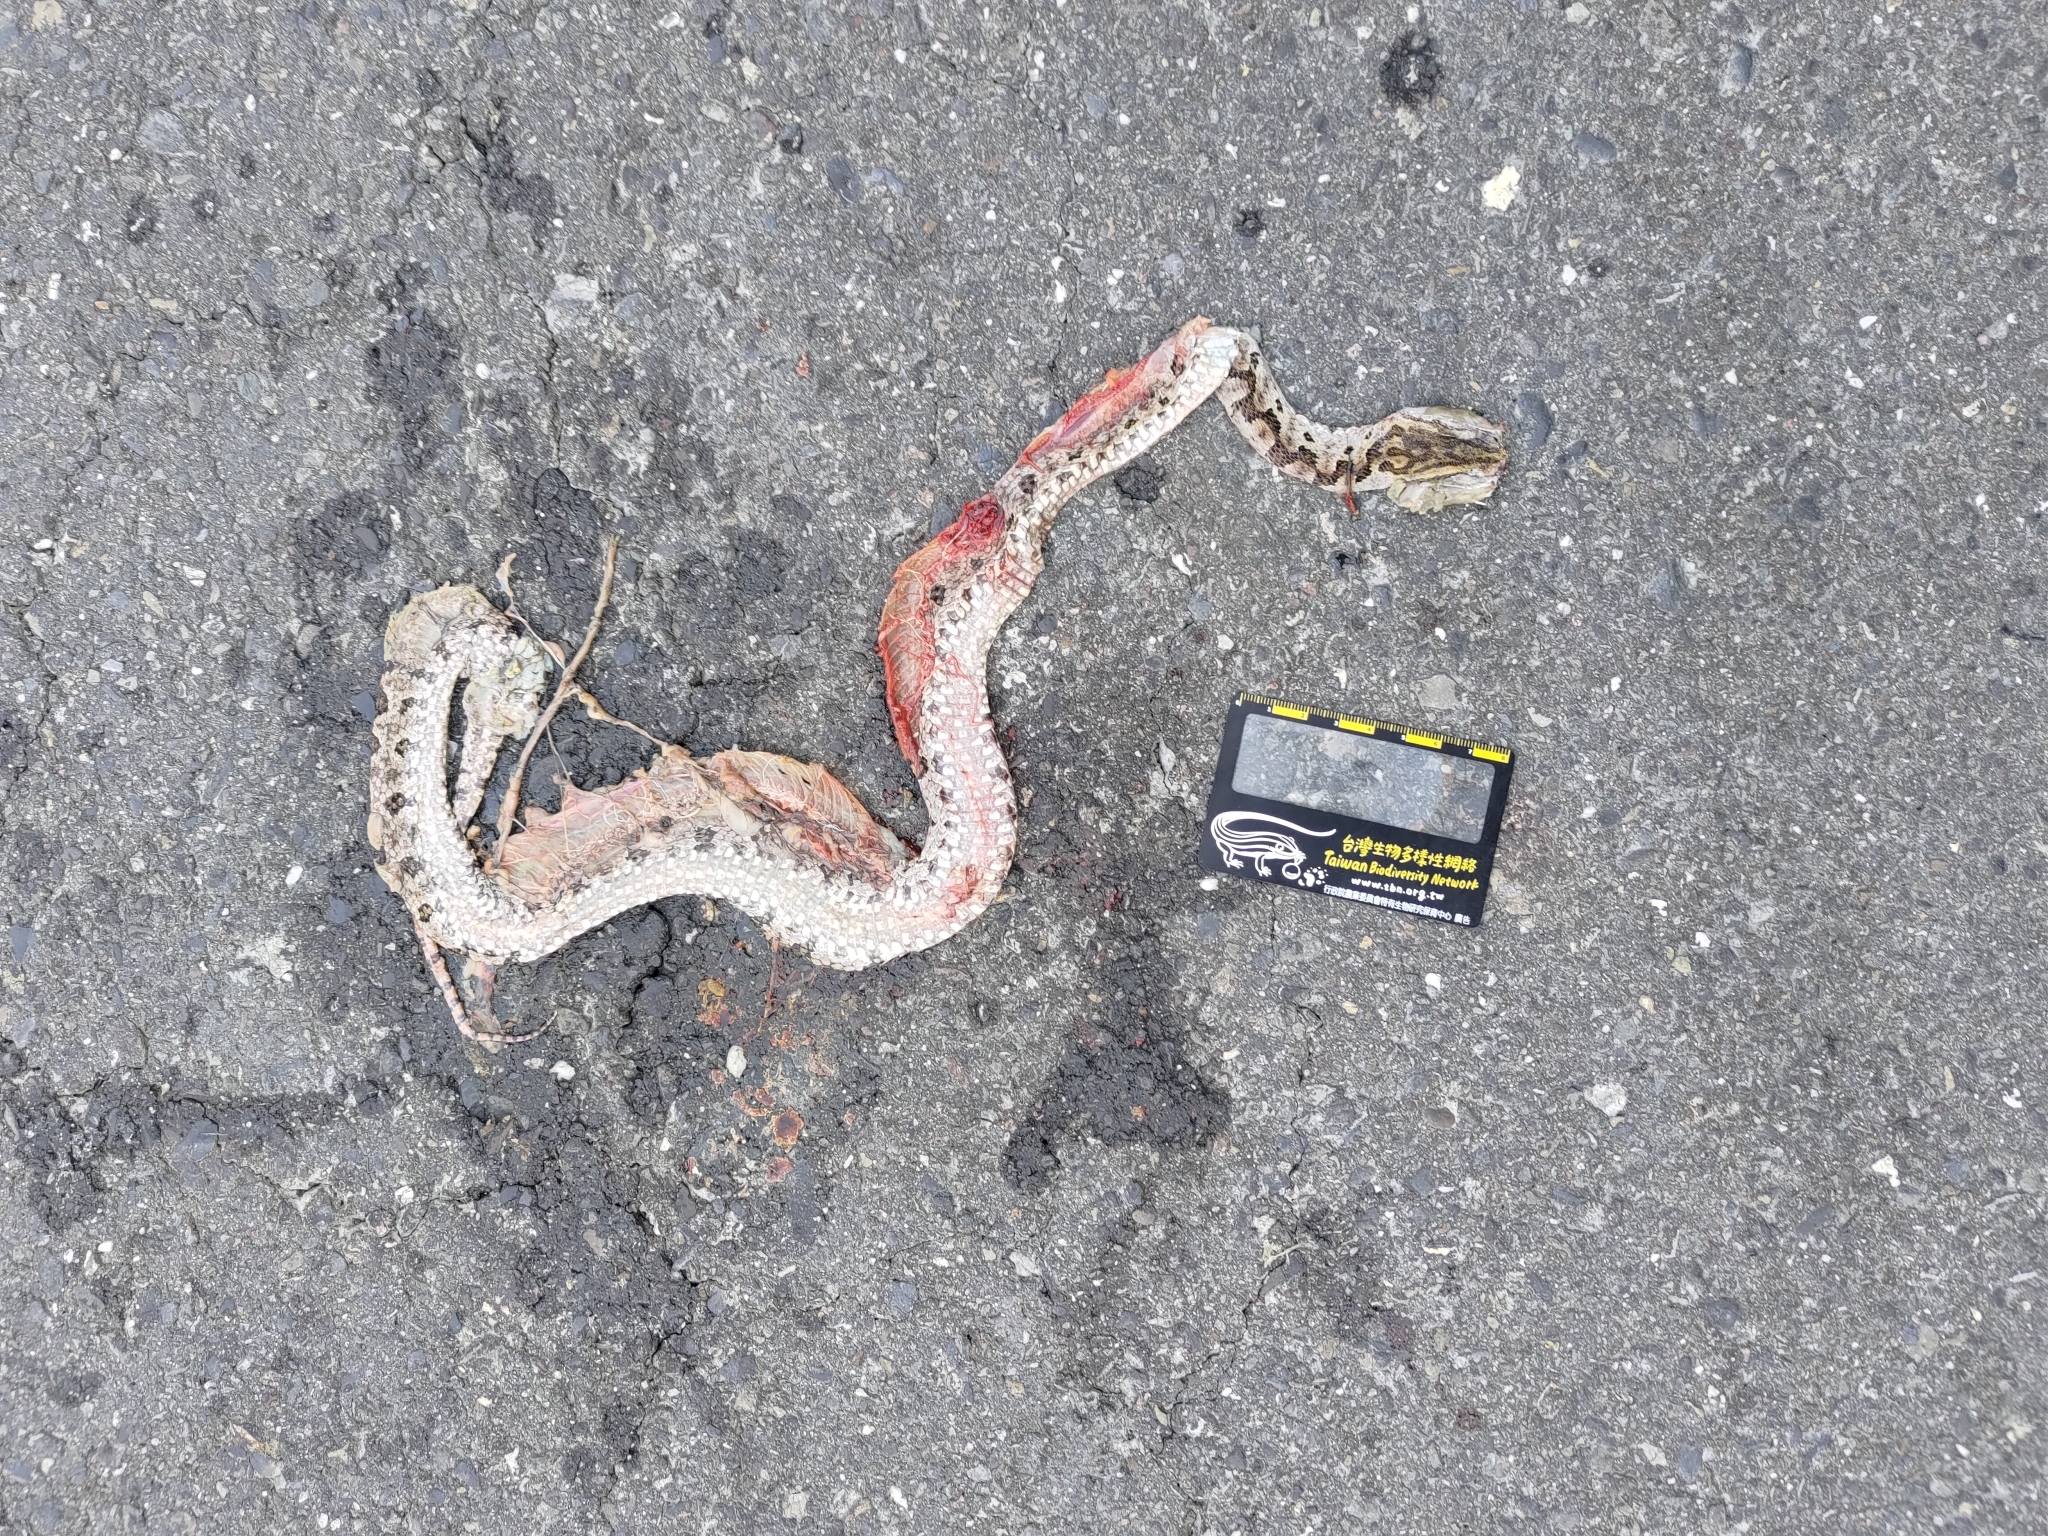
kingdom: Animalia
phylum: Chordata
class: Squamata
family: Viperidae
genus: Protobothrops
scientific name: Protobothrops mucrosquamatus
